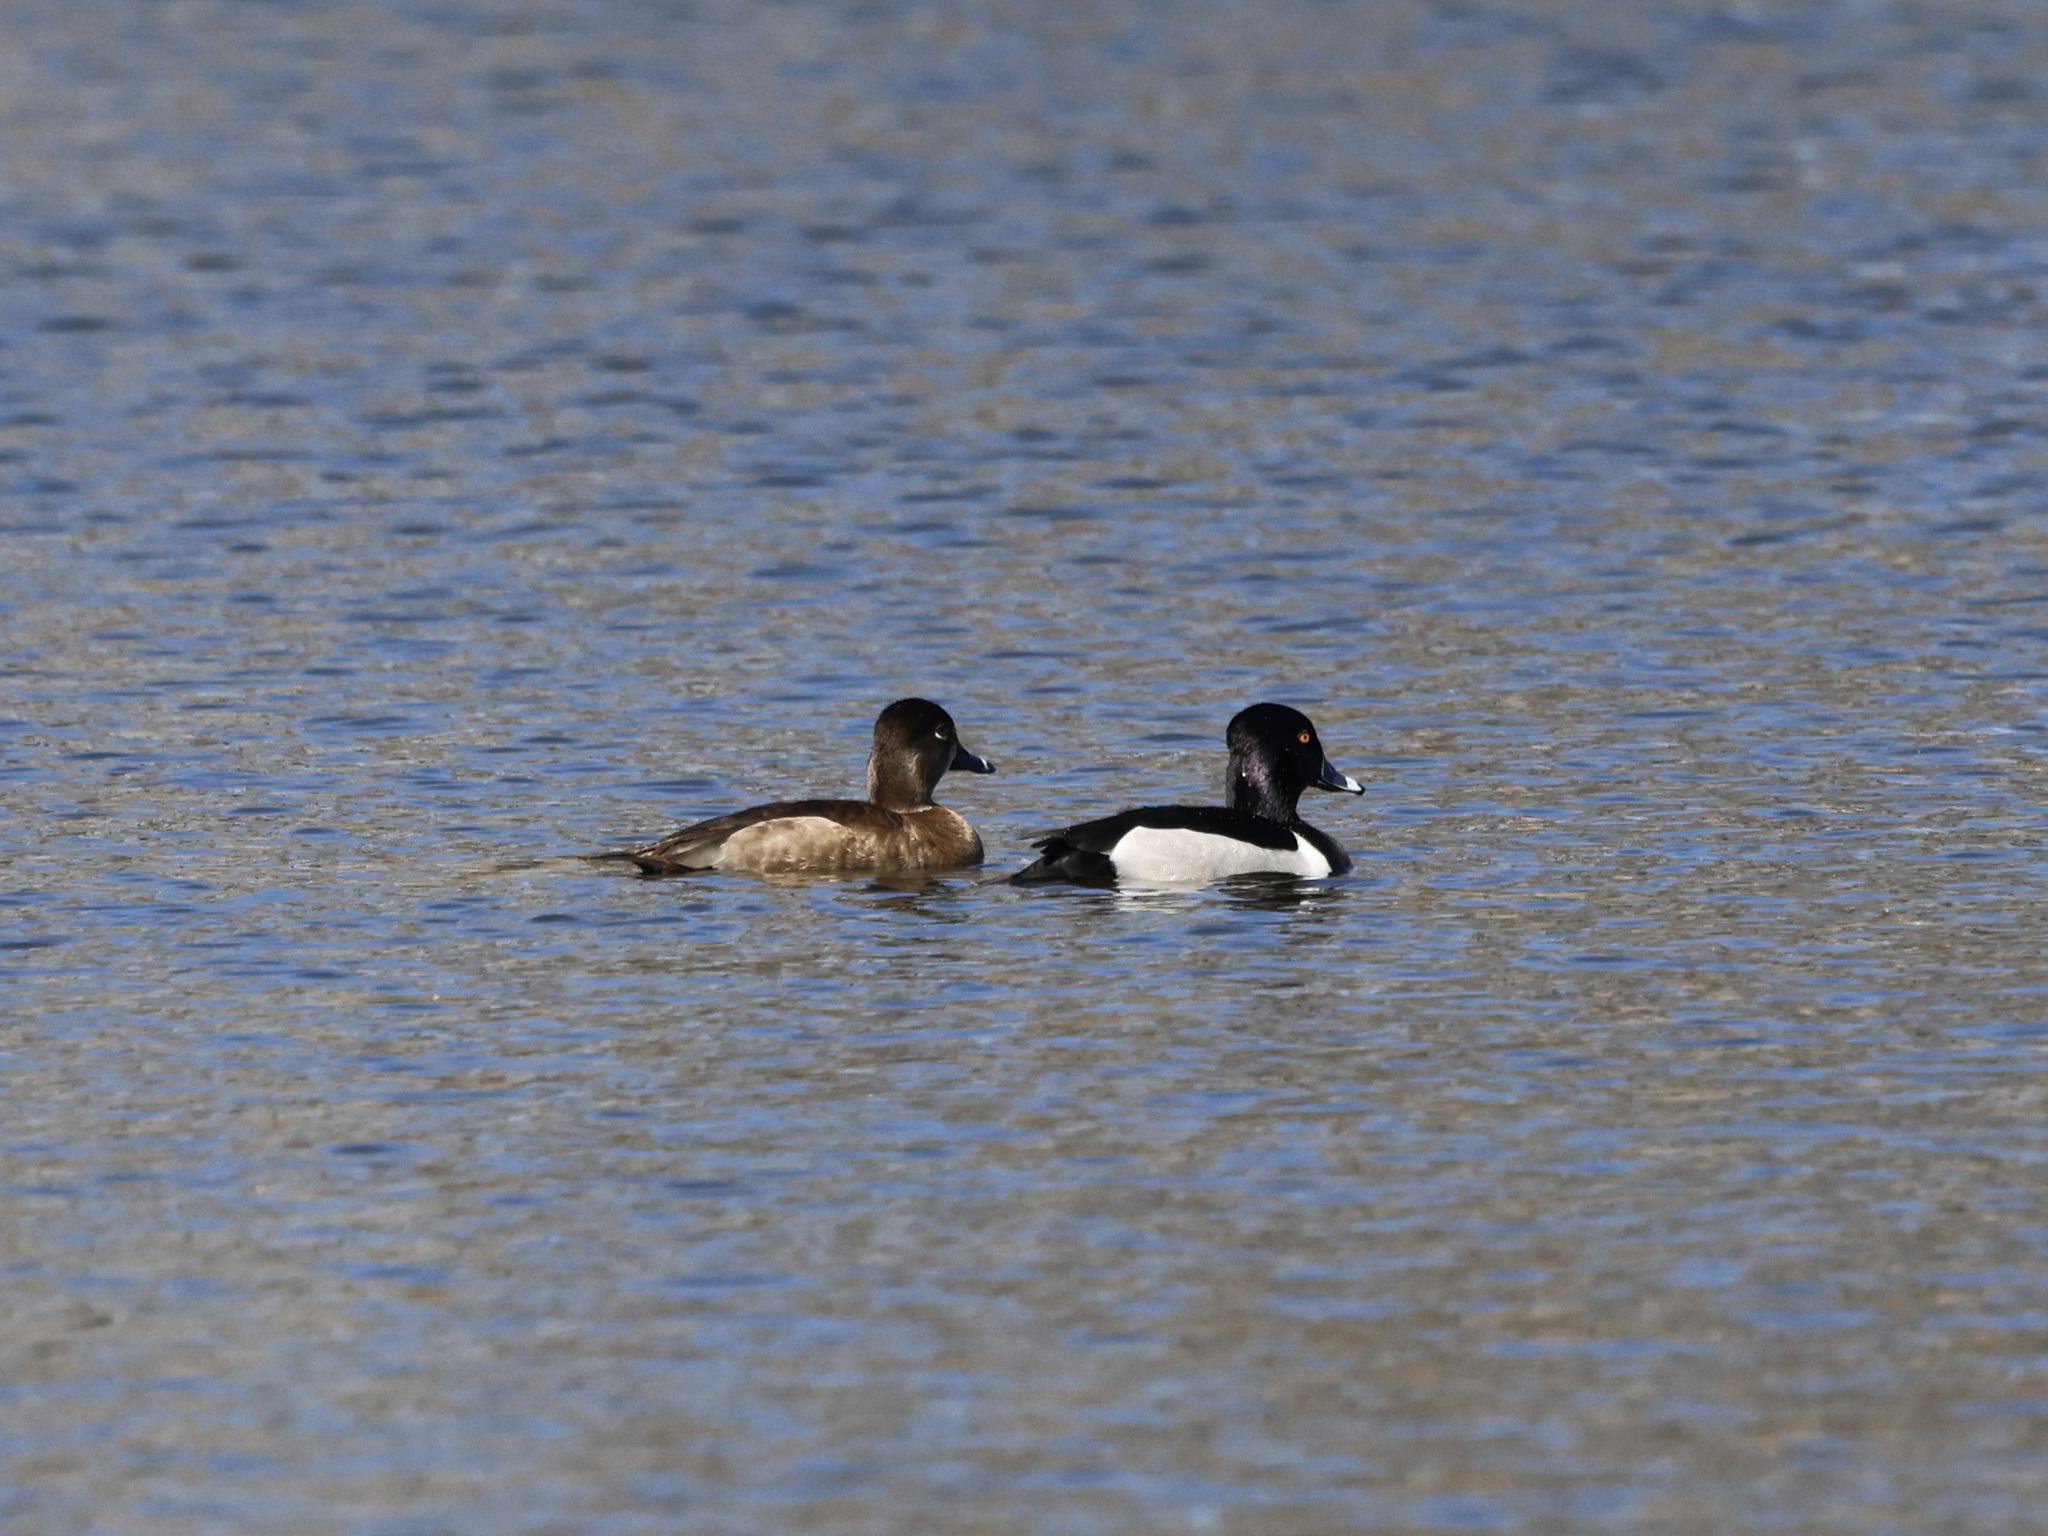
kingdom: Animalia
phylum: Chordata
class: Aves
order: Anseriformes
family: Anatidae
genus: Aythya
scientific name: Aythya collaris
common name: Ring-necked duck
